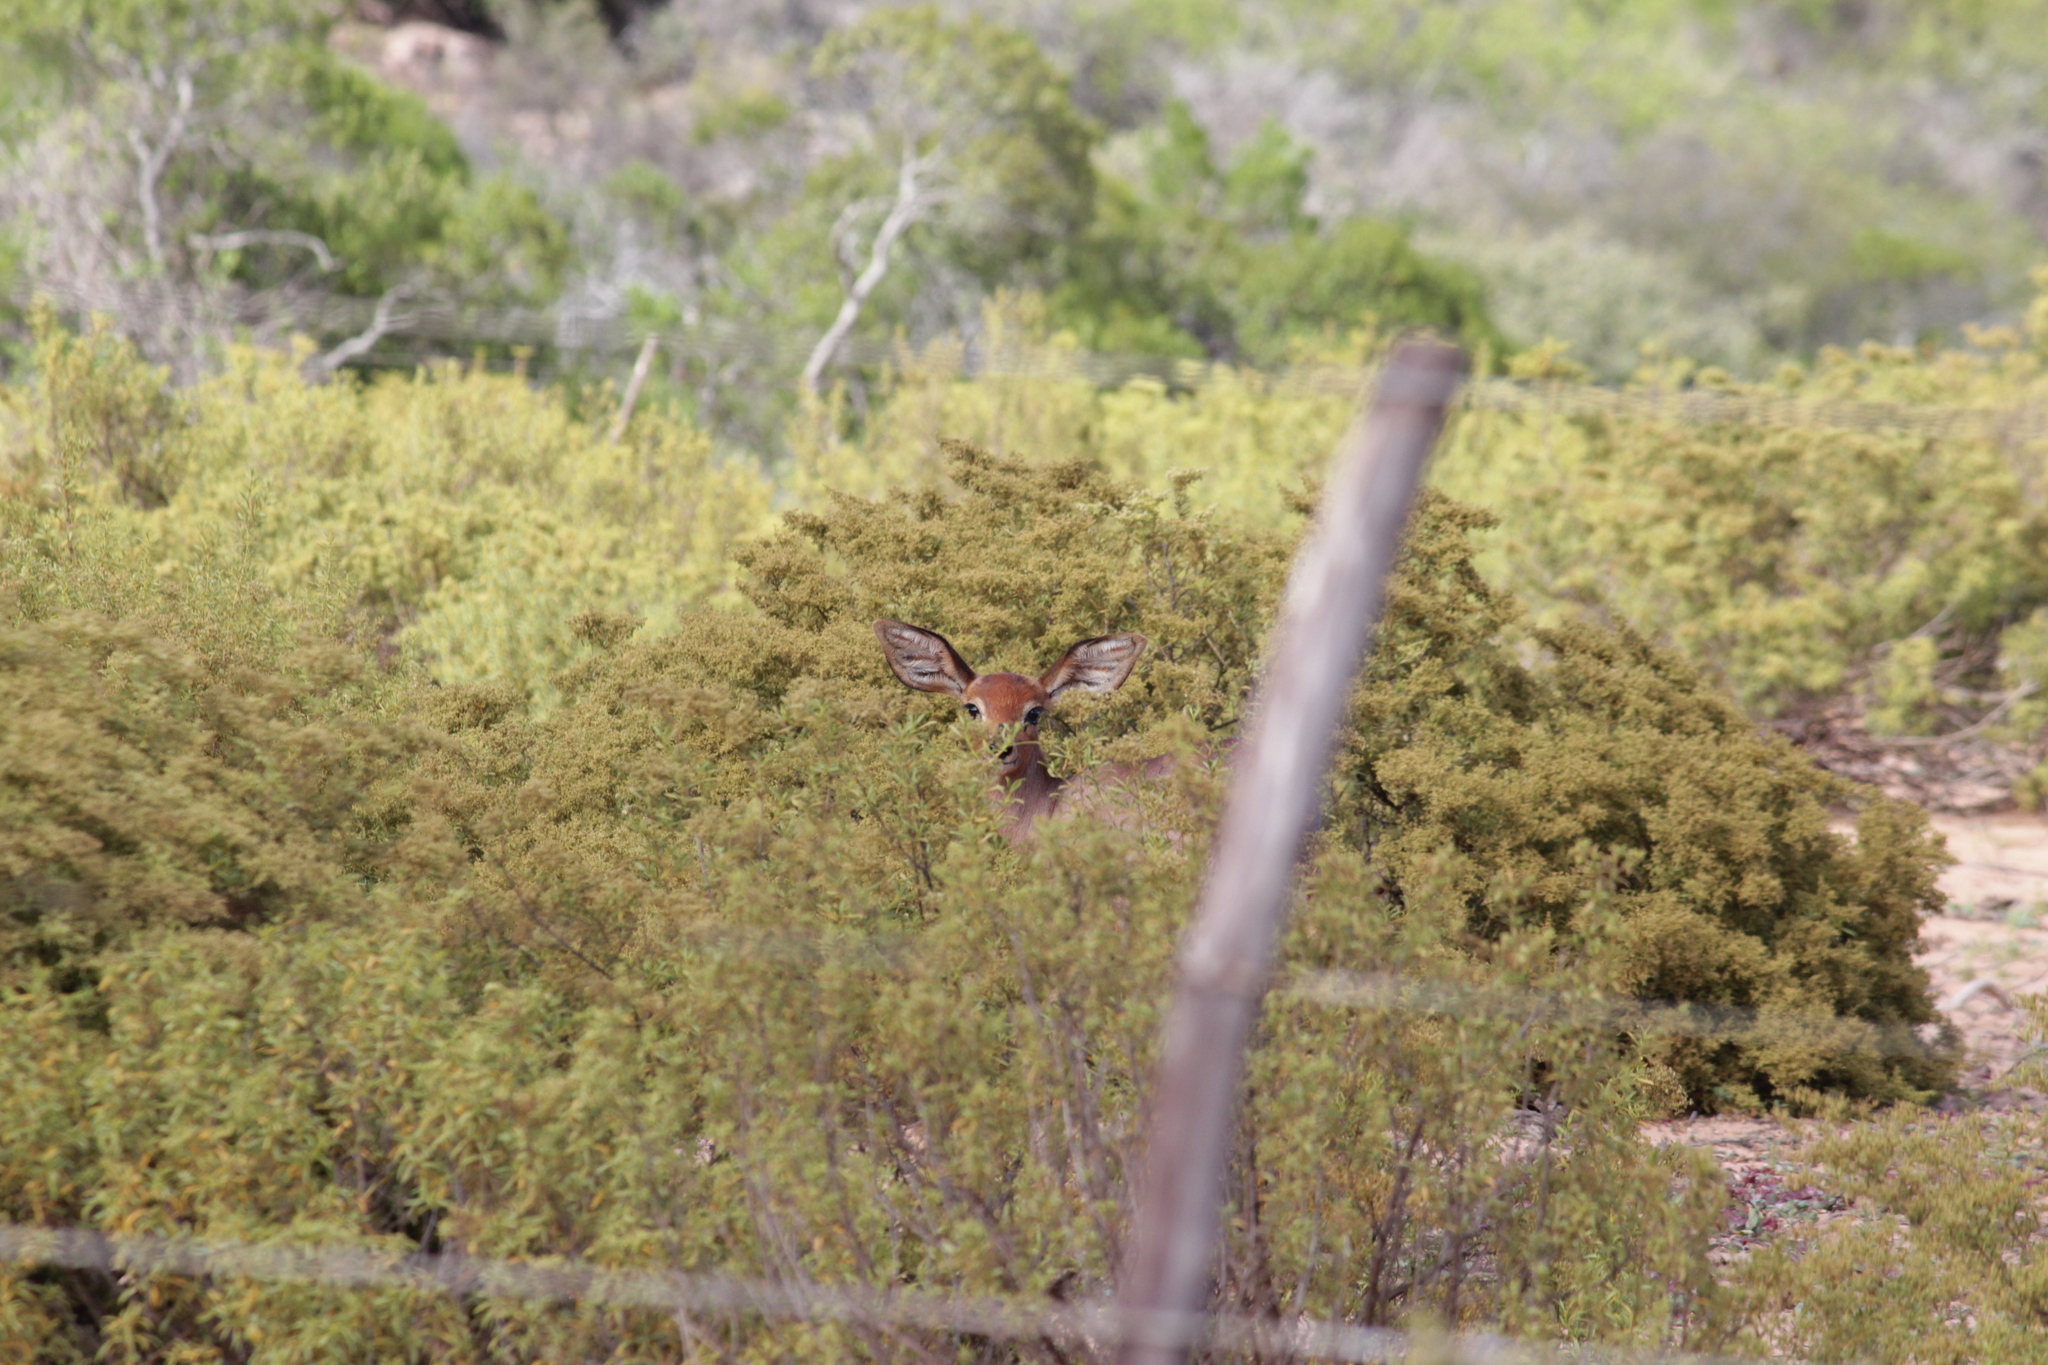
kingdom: Animalia
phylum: Chordata
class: Mammalia
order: Artiodactyla
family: Bovidae
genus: Raphicerus
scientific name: Raphicerus campestris
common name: Steenbok
